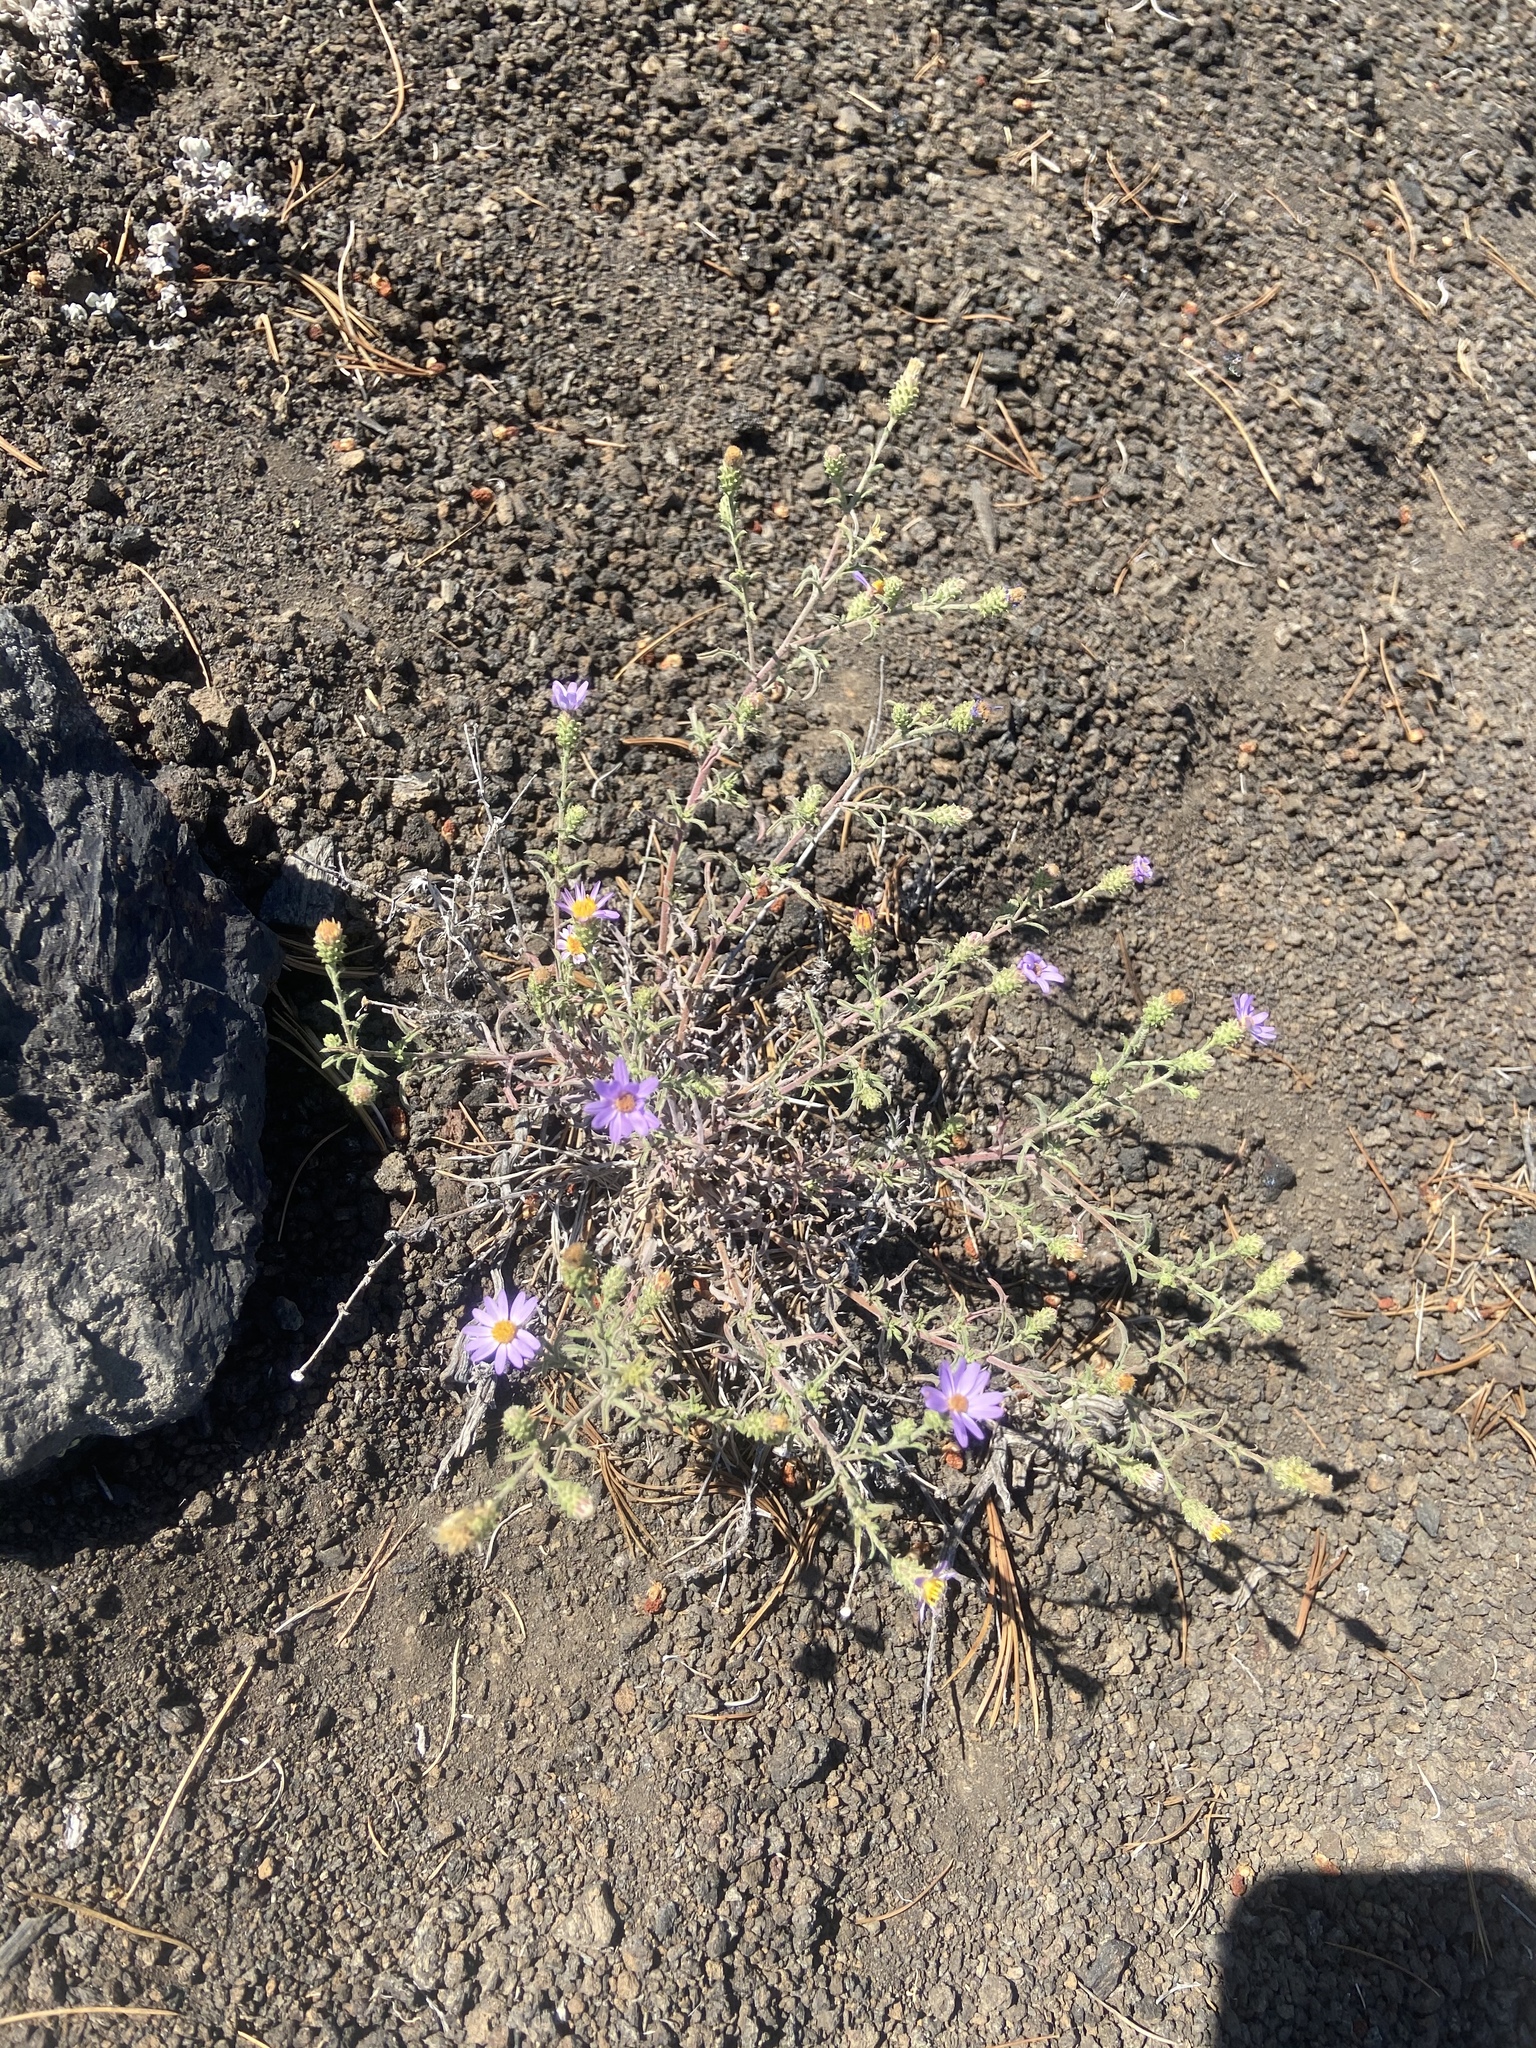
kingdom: Plantae
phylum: Tracheophyta
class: Magnoliopsida
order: Asterales
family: Asteraceae
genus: Dieteria
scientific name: Dieteria canescens
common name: Hoary-aster
